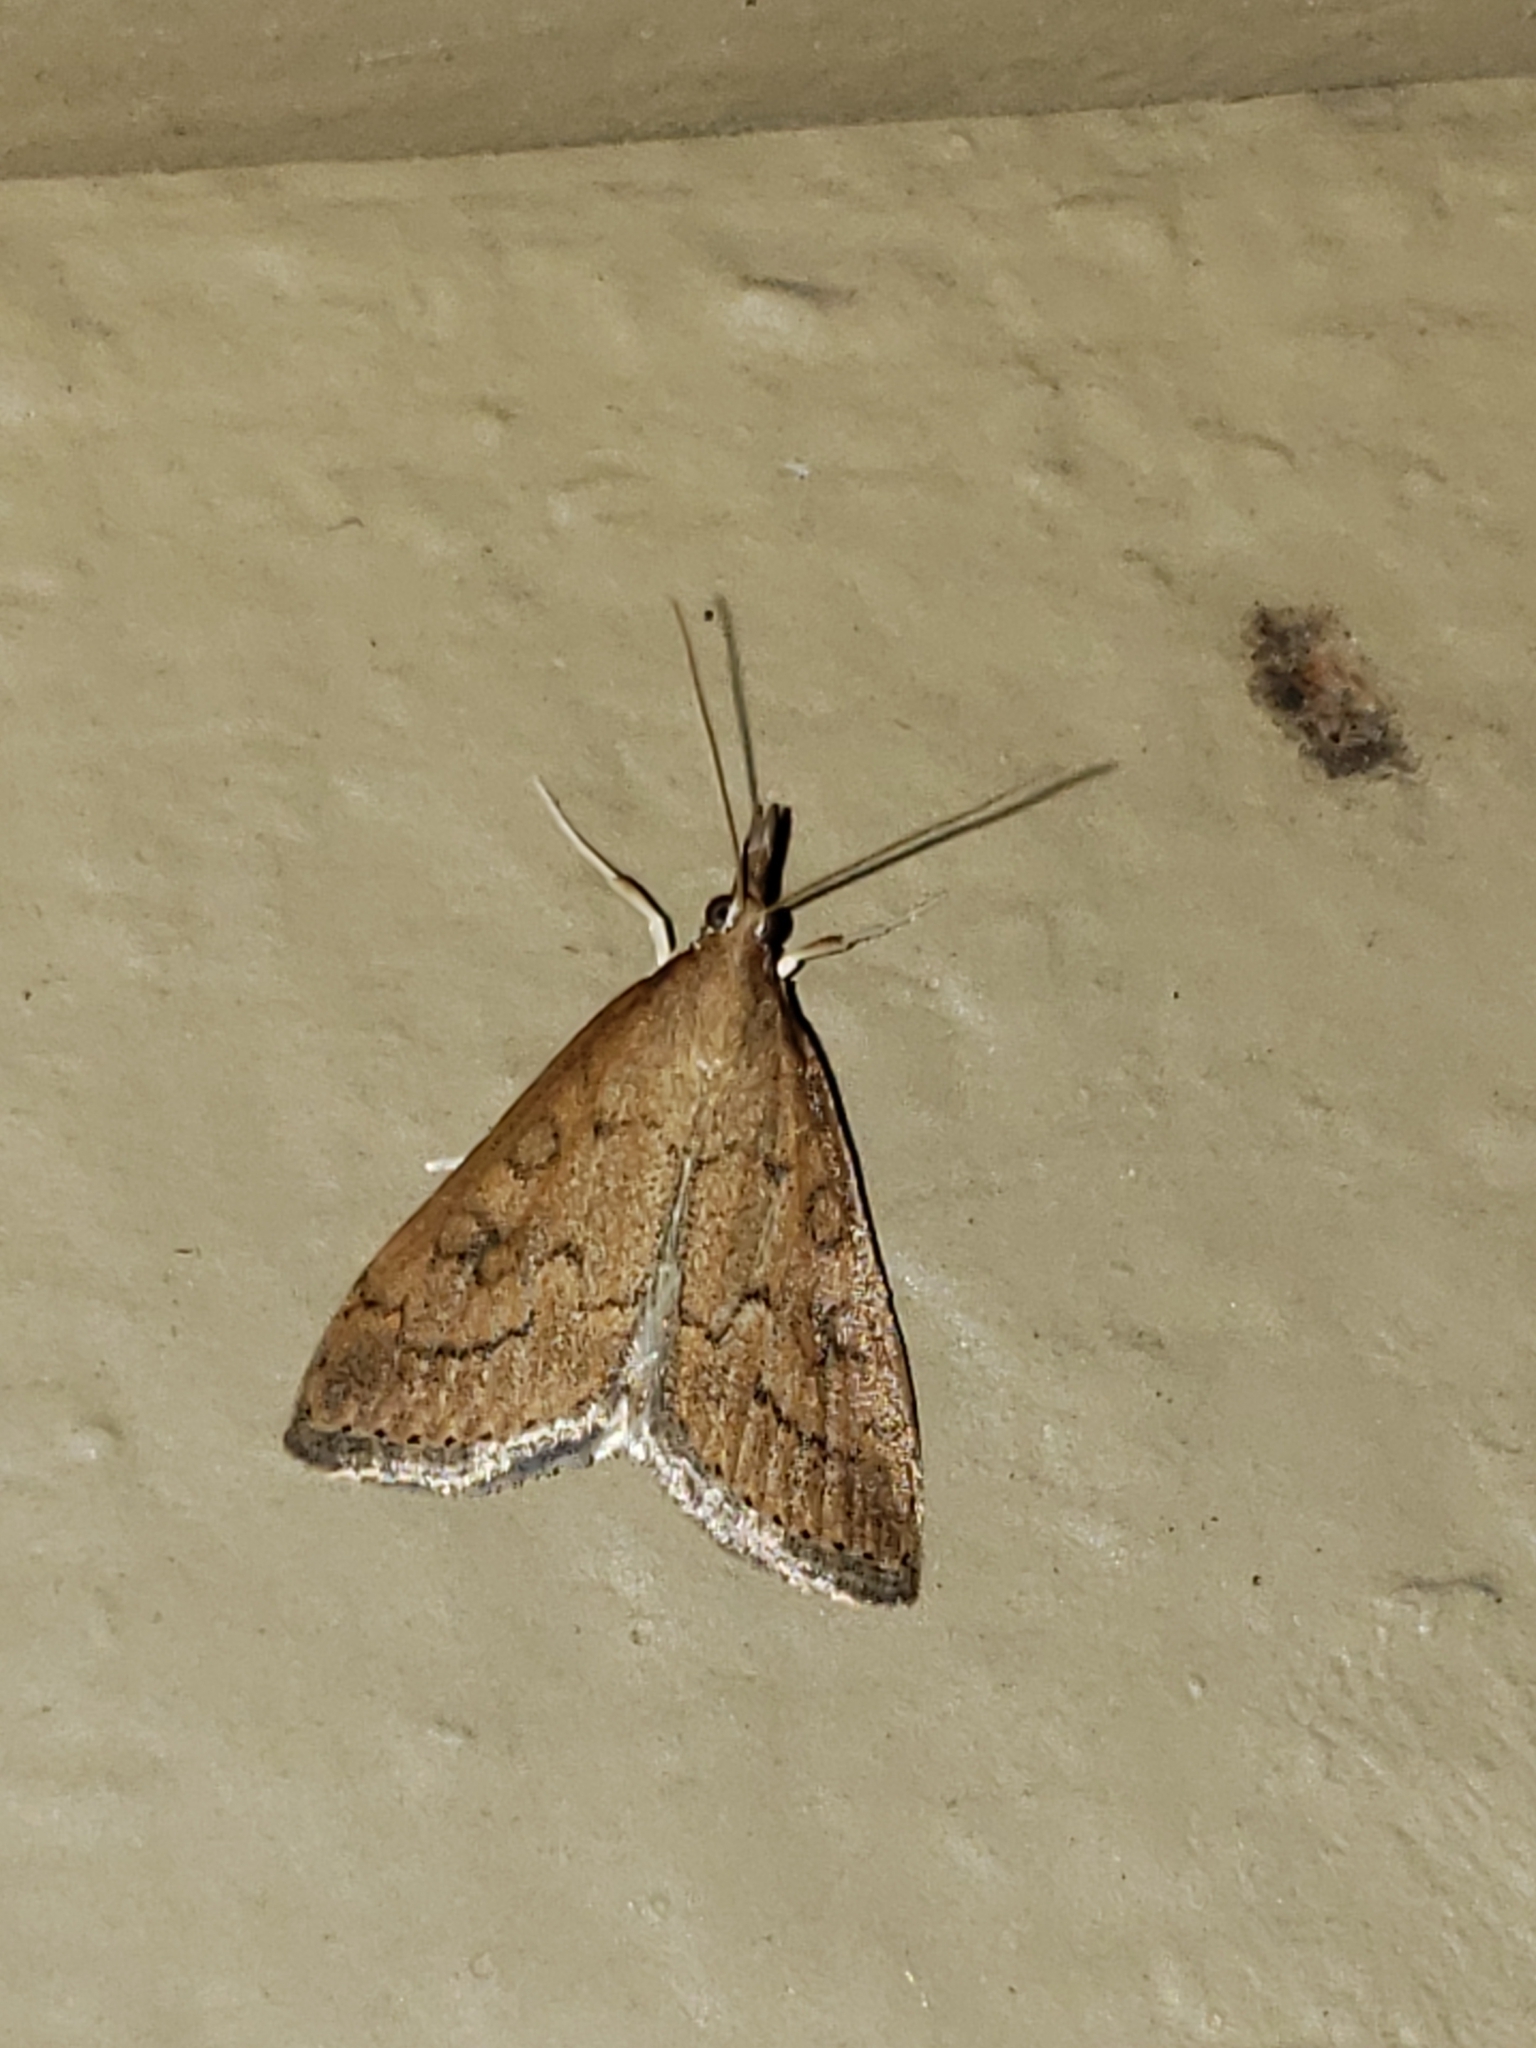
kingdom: Animalia
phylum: Arthropoda
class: Insecta
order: Lepidoptera
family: Crambidae
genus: Udea
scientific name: Udea rubigalis
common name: Celery leaftier moth
